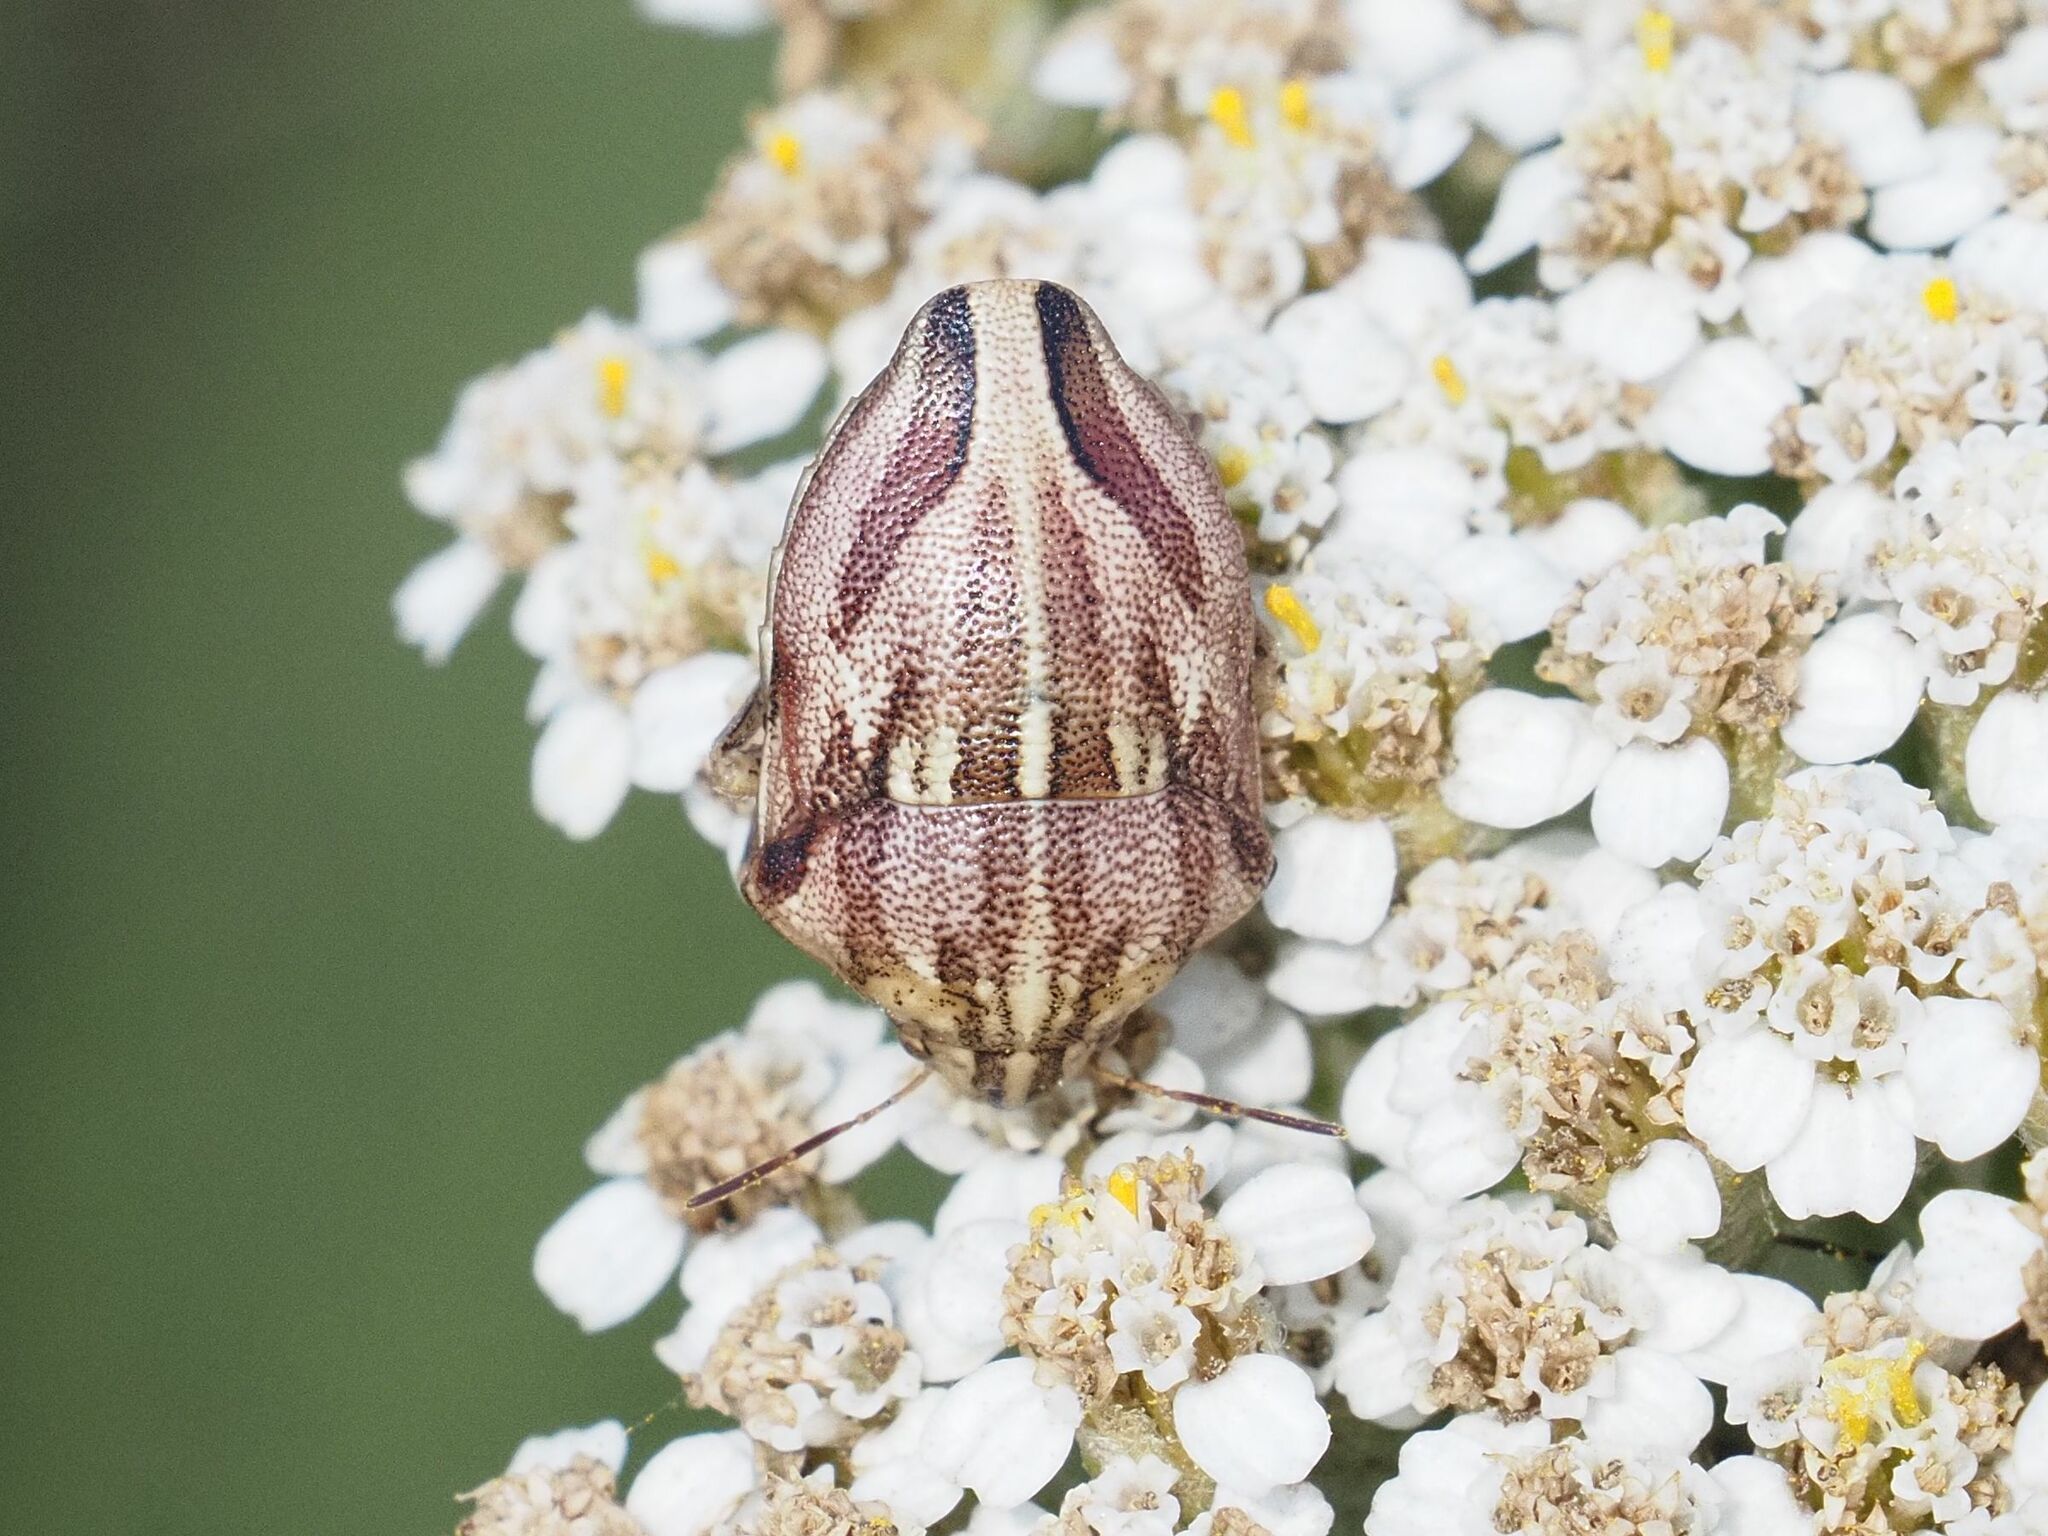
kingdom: Animalia
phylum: Arthropoda
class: Insecta
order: Hemiptera
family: Scutelleridae
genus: Odontotarsus
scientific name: Odontotarsus purpureolineatus
